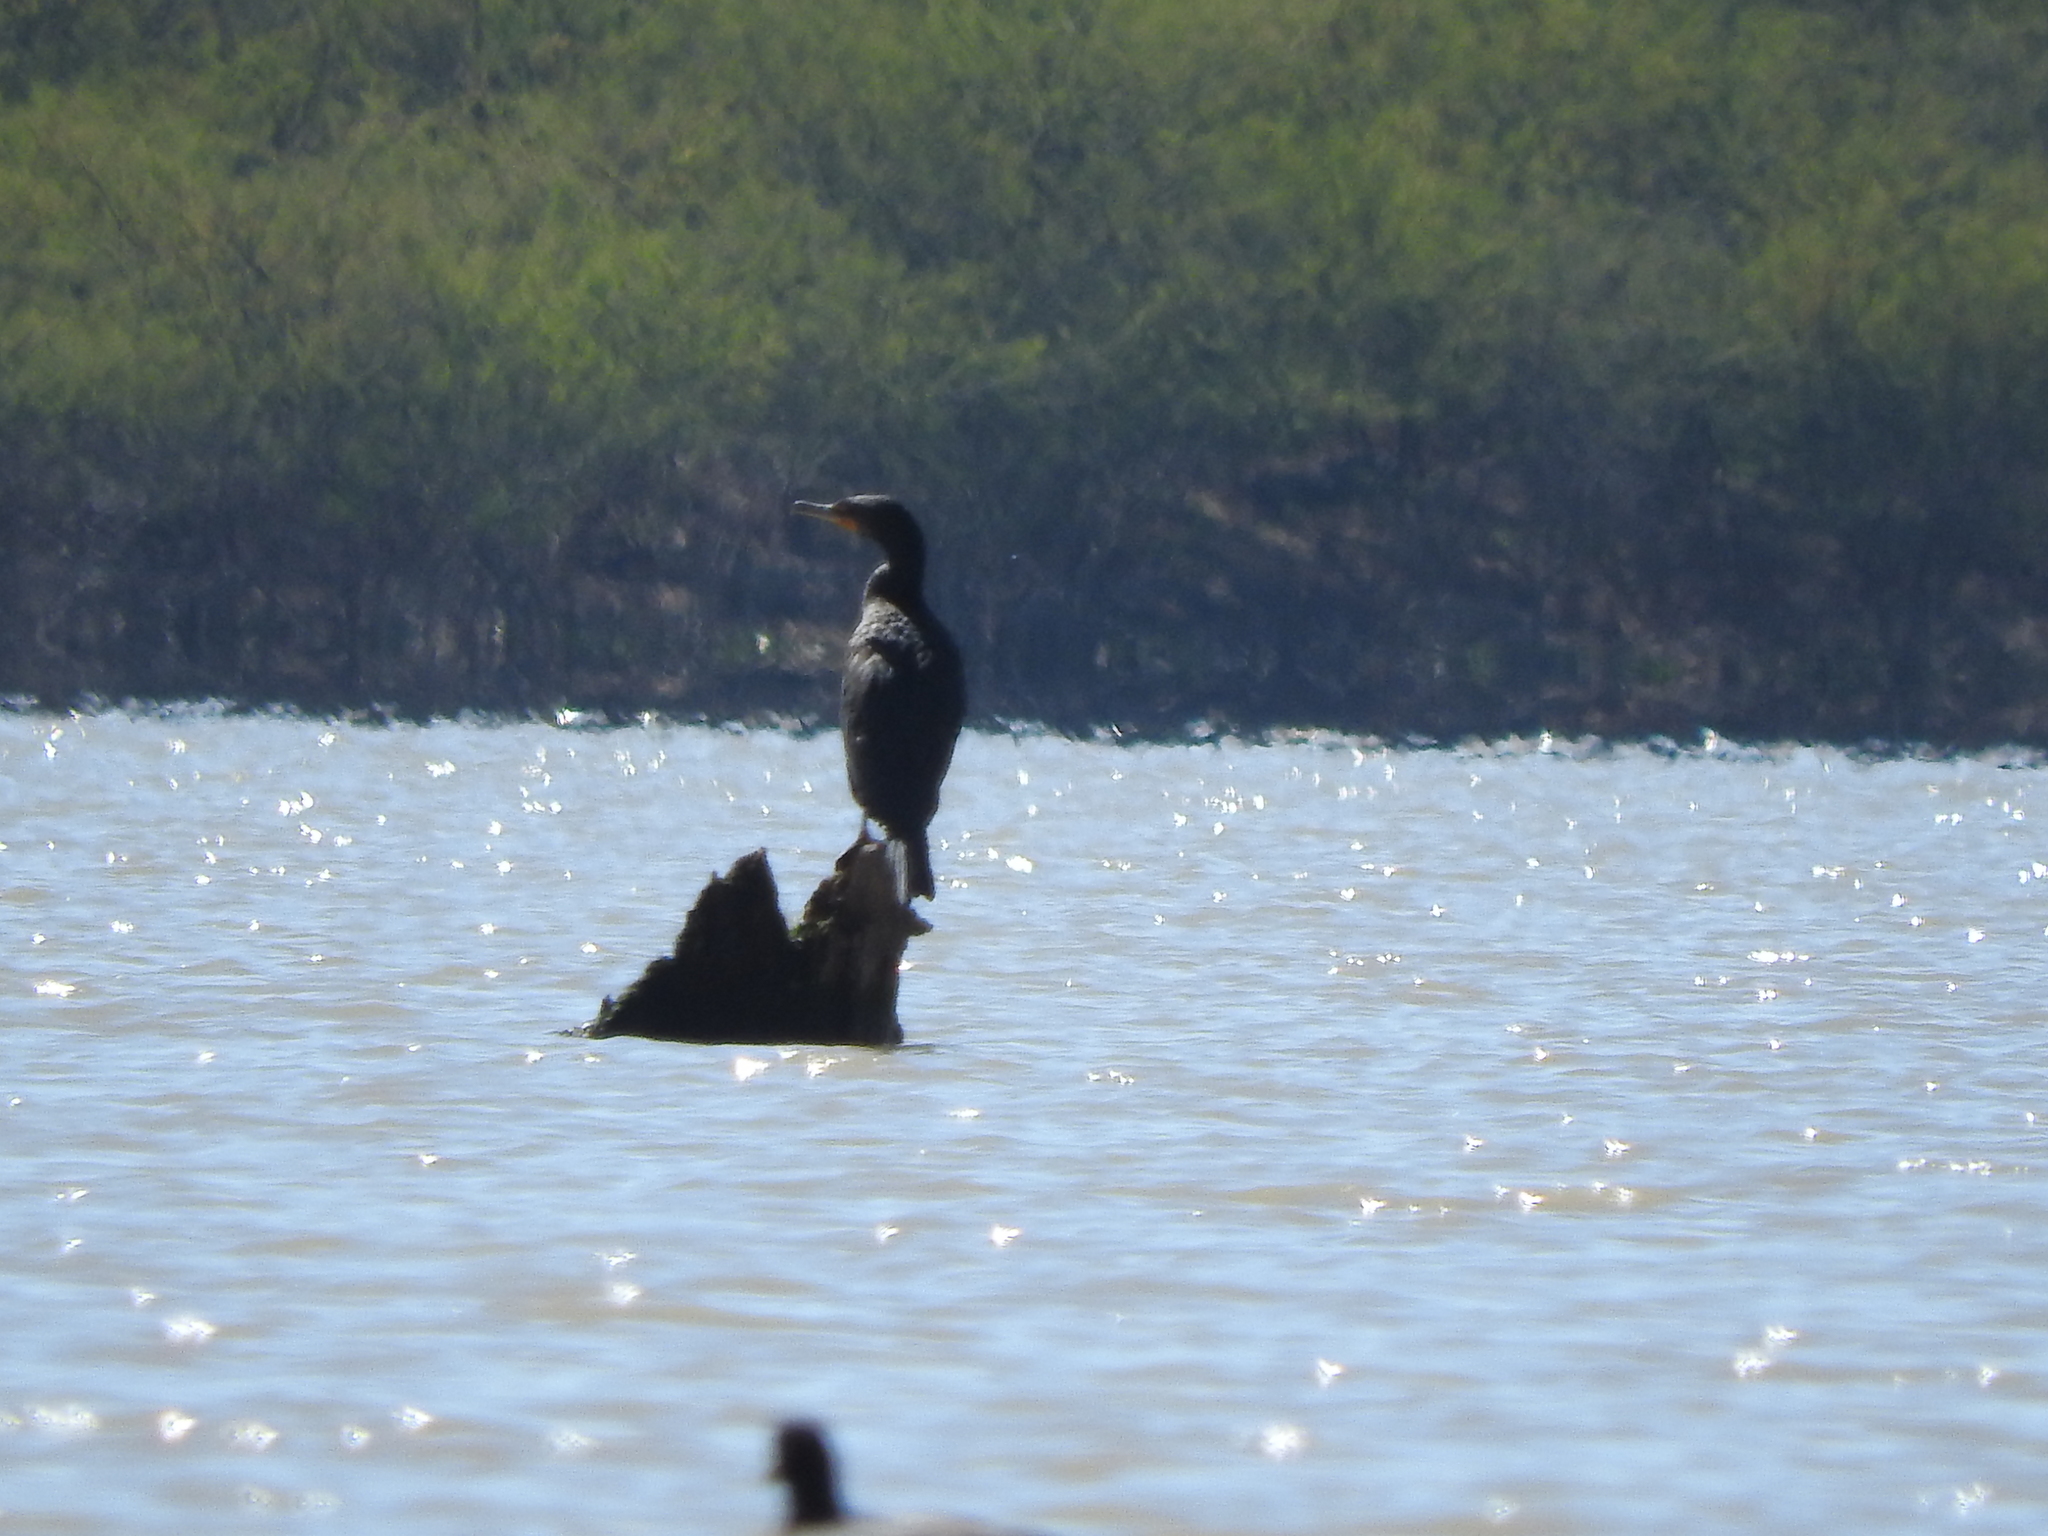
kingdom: Animalia
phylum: Chordata
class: Aves
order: Suliformes
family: Phalacrocoracidae
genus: Phalacrocorax
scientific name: Phalacrocorax brasilianus
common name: Neotropic cormorant
